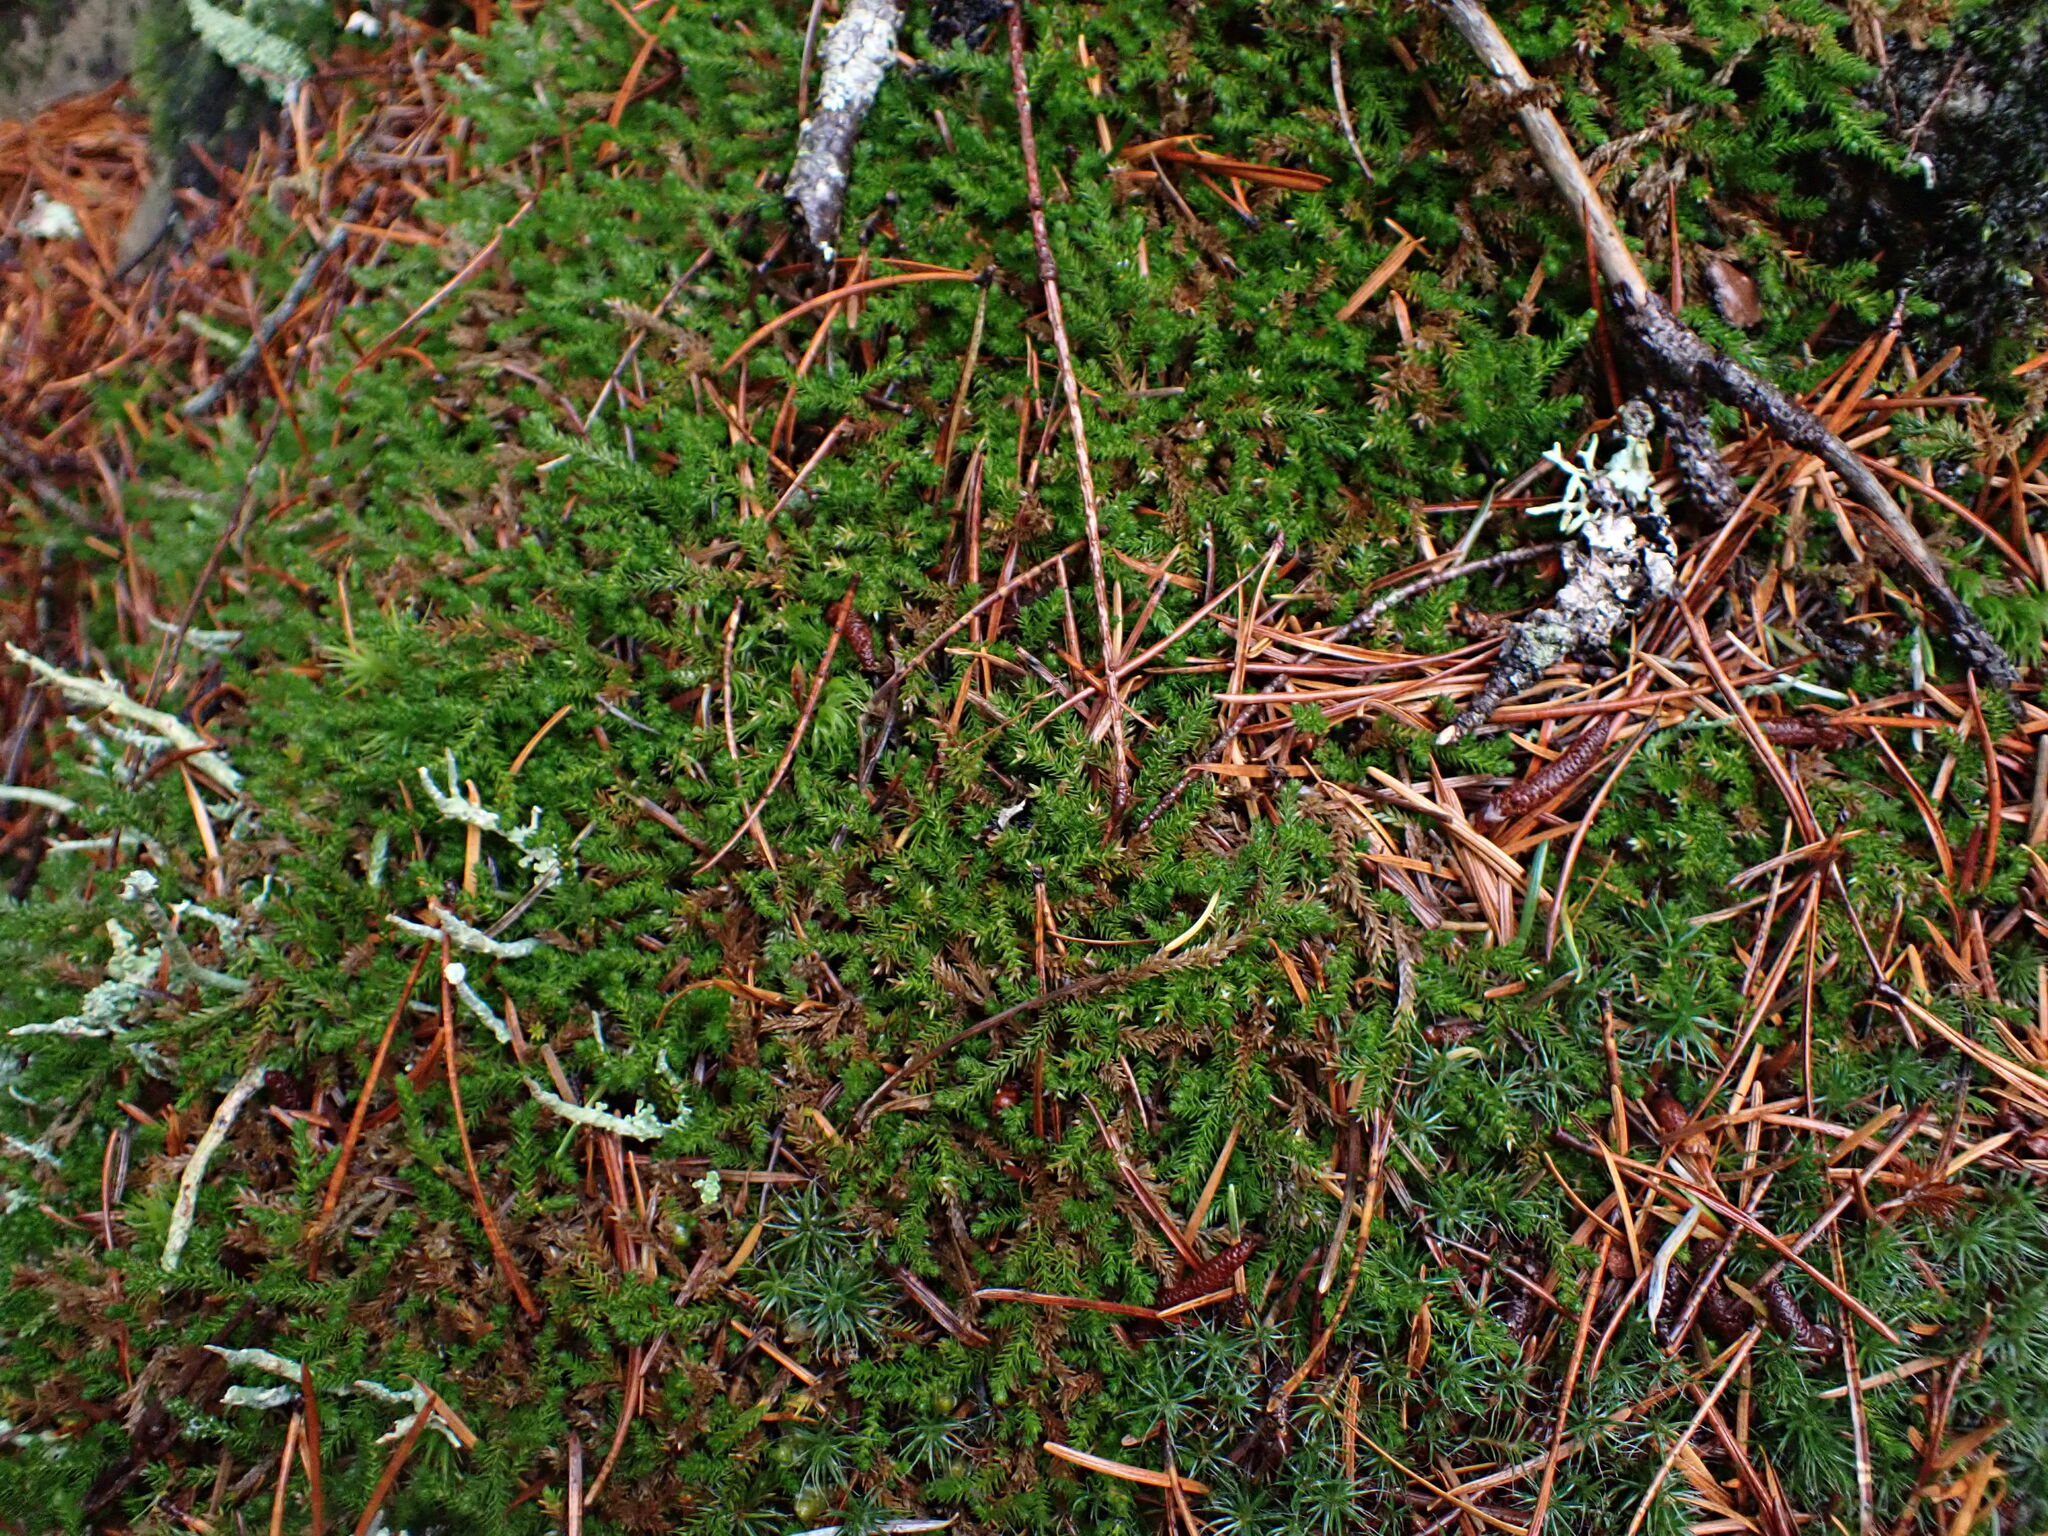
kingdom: Plantae
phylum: Tracheophyta
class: Lycopodiopsida
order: Selaginellales
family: Selaginellaceae
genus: Selaginella
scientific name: Selaginella wallacei
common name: Wallace's selaginella
